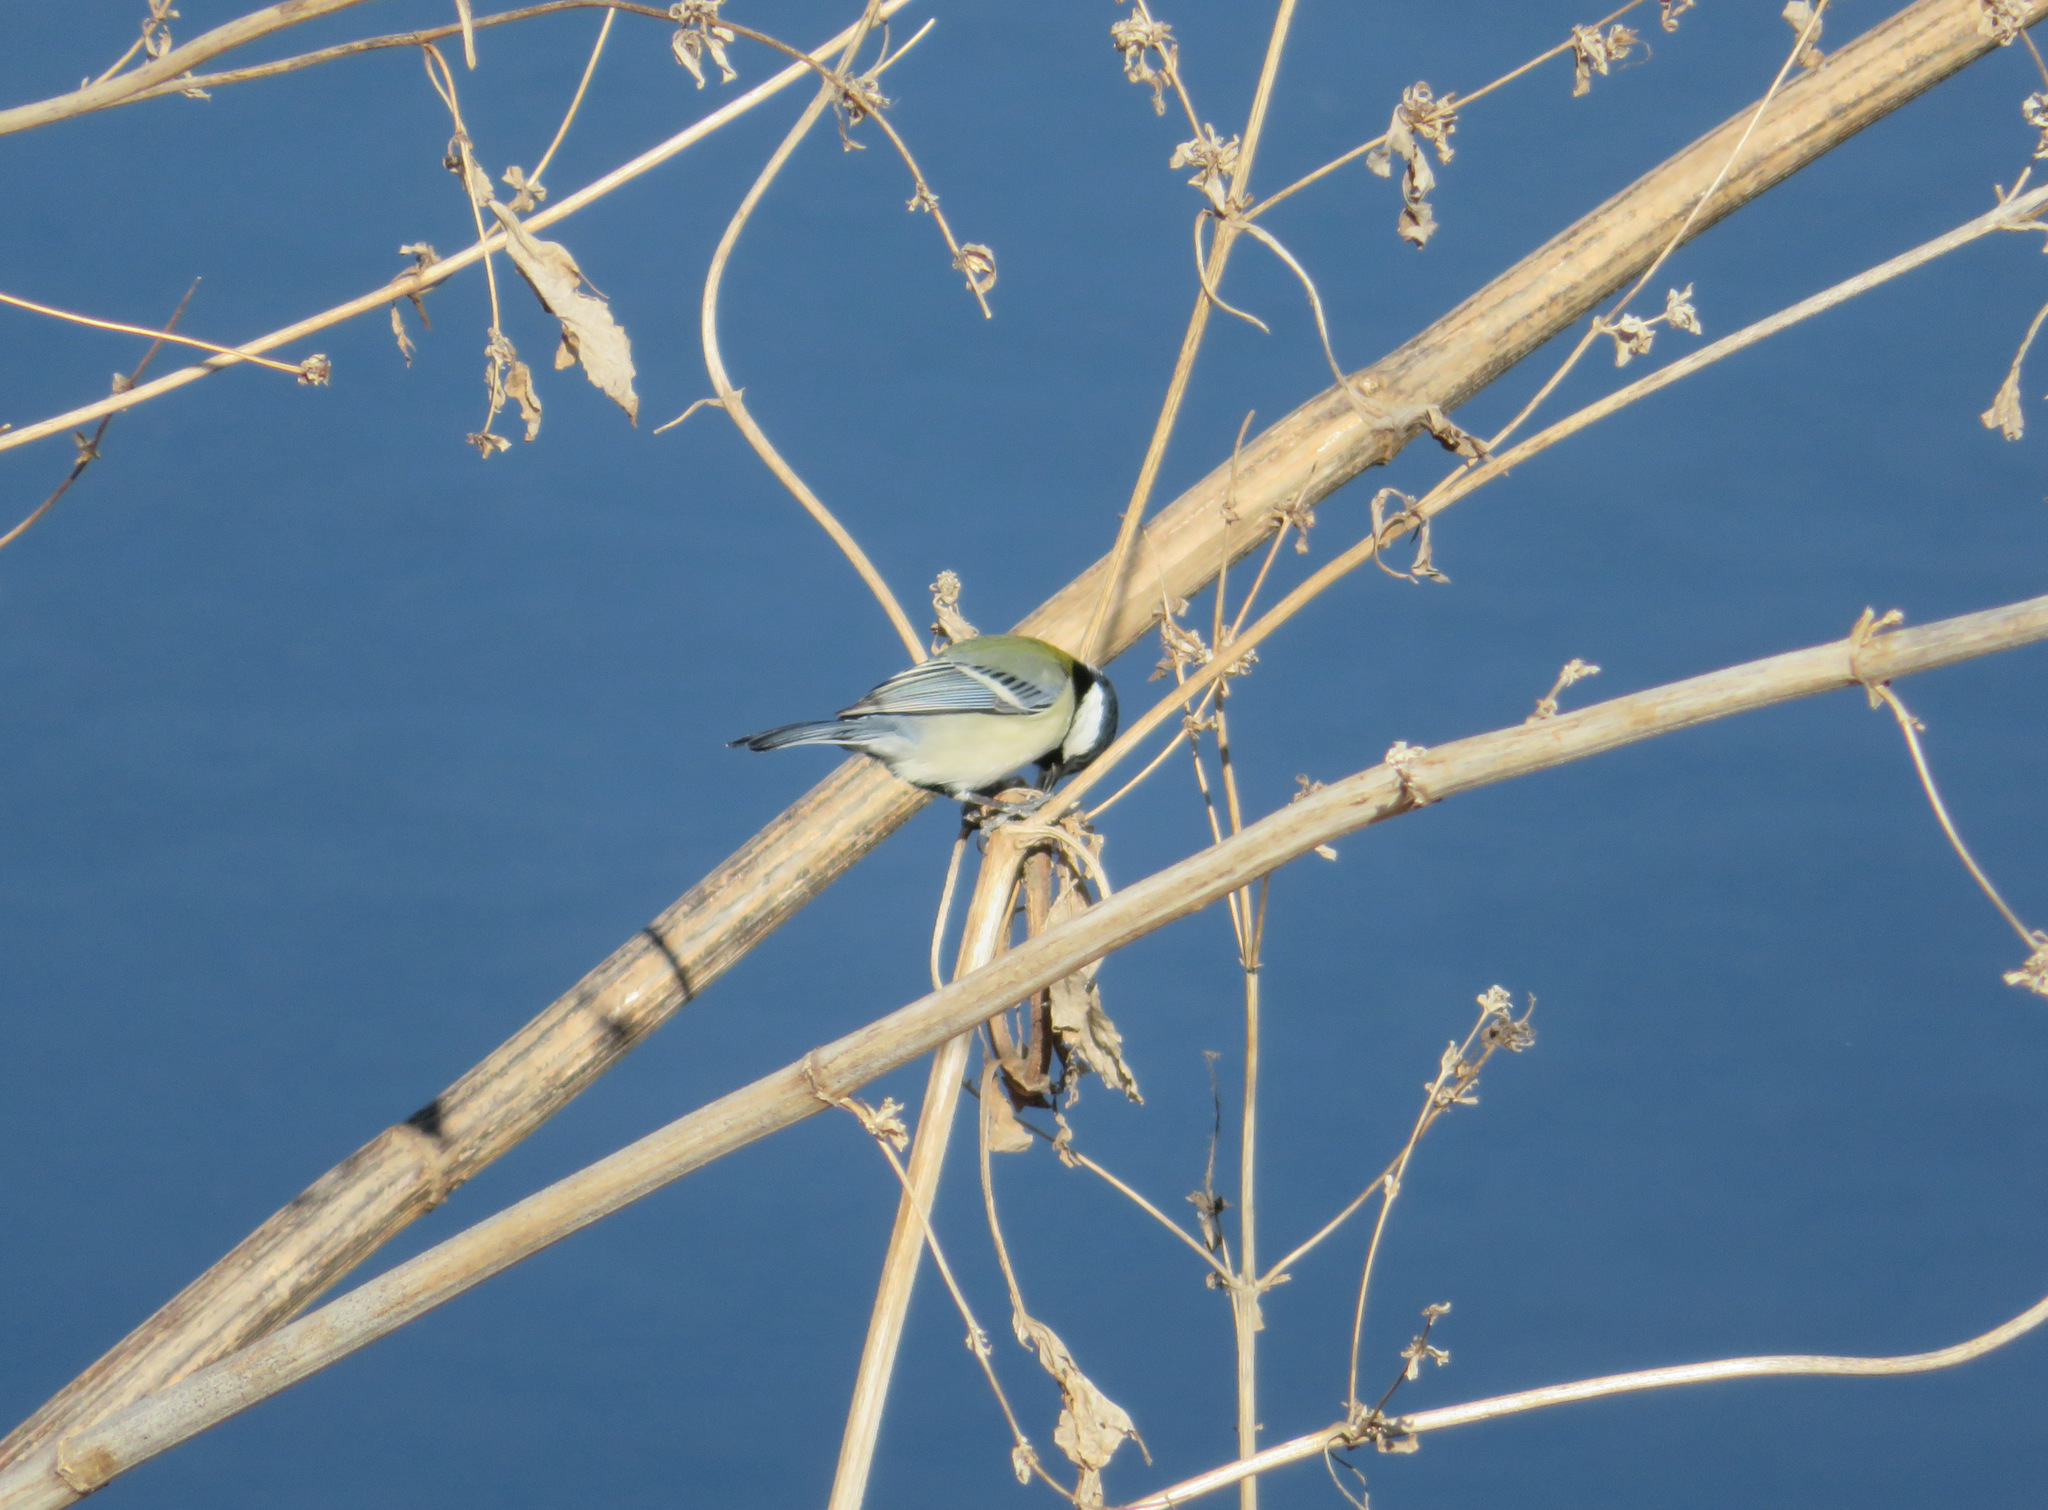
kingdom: Animalia
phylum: Chordata
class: Aves
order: Passeriformes
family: Paridae
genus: Parus
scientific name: Parus minor
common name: Japanese tit
